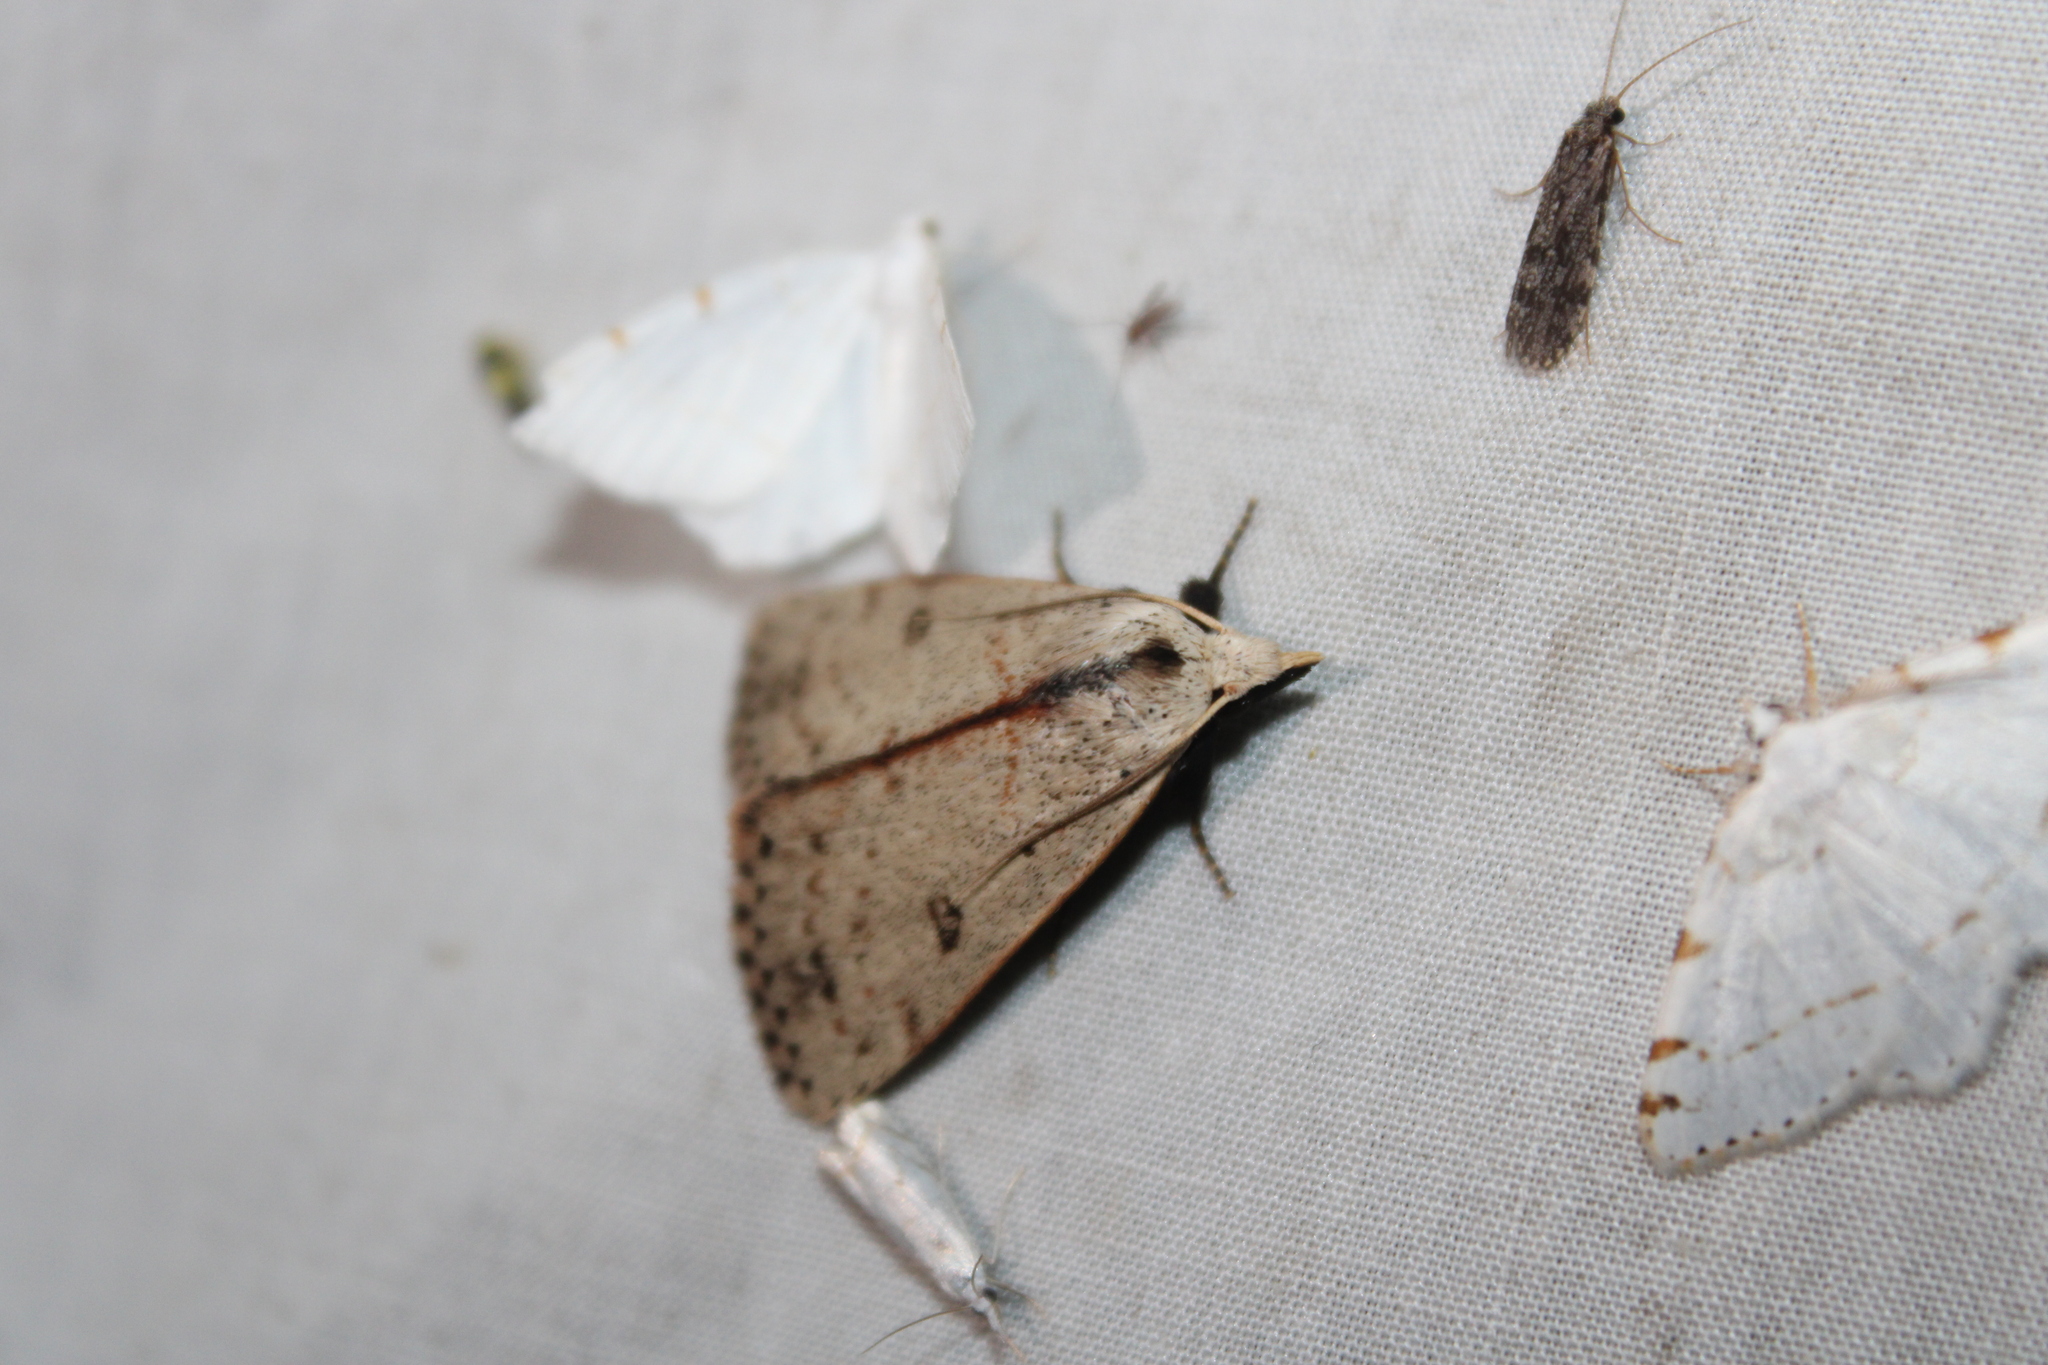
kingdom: Animalia
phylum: Arthropoda
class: Insecta
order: Lepidoptera
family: Erebidae
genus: Scolecocampa
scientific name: Scolecocampa liburna
